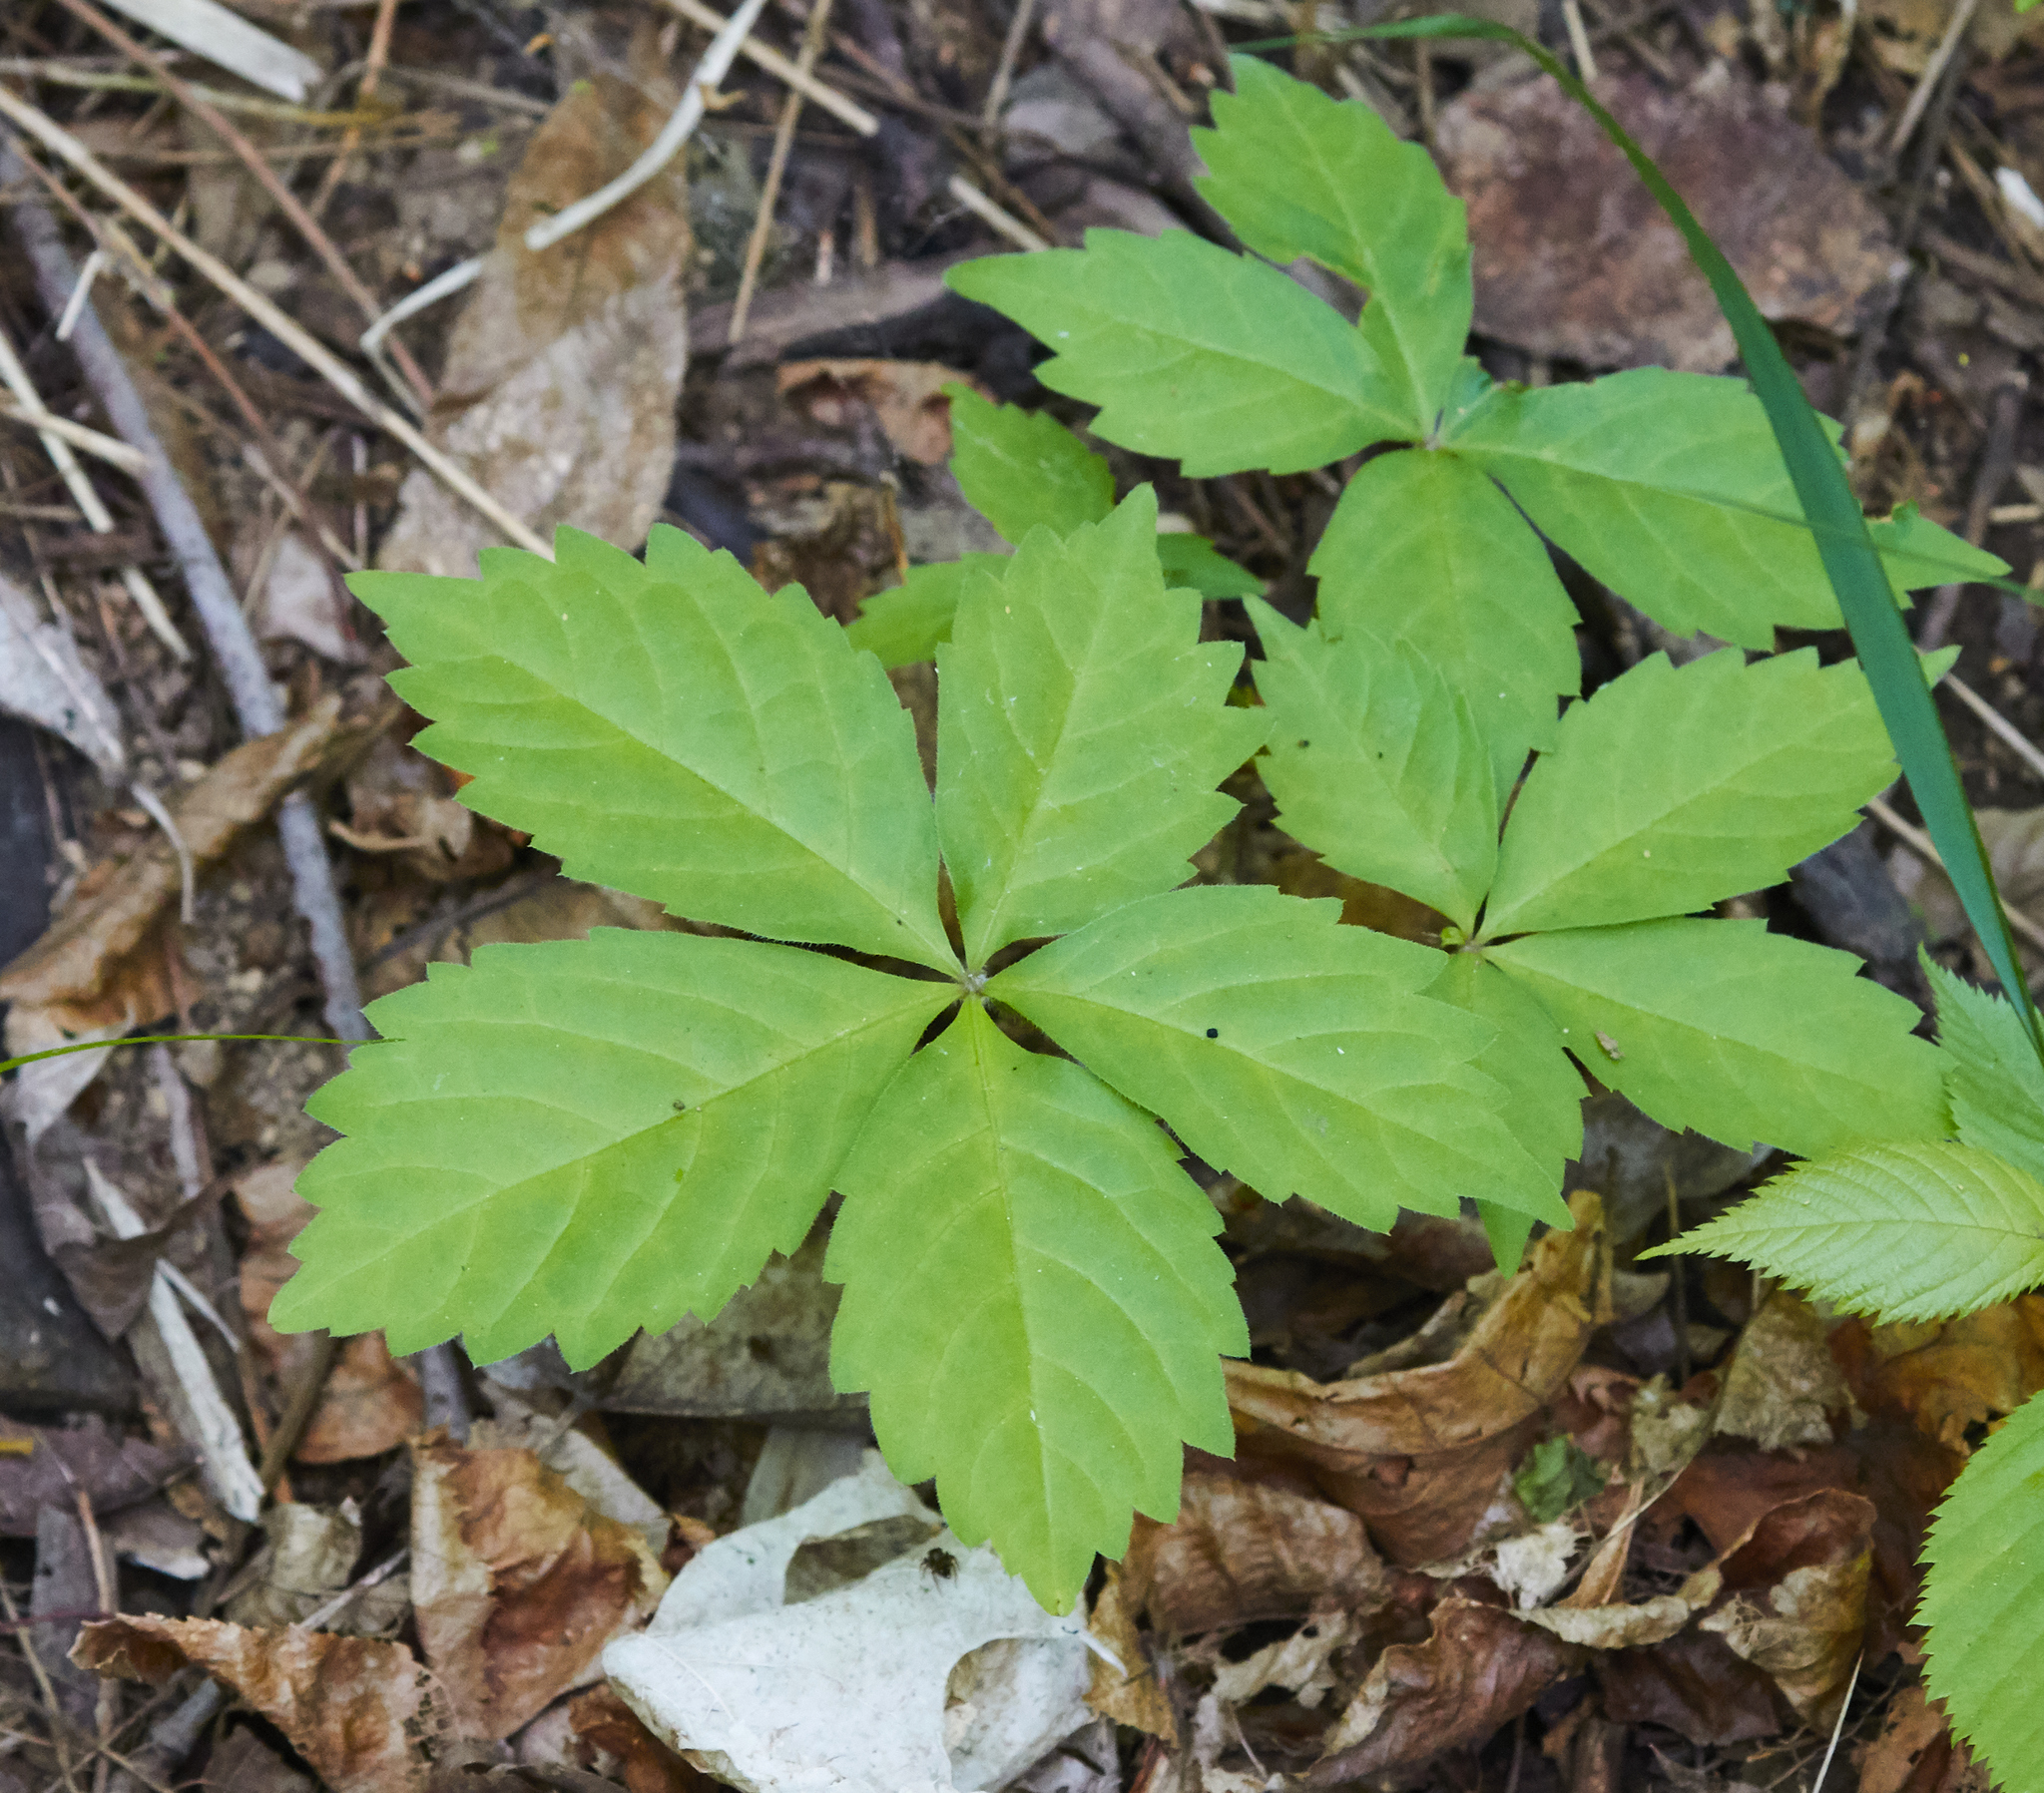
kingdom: Plantae
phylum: Tracheophyta
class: Magnoliopsida
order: Vitales
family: Vitaceae
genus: Parthenocissus
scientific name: Parthenocissus quinquefolia
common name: Virginia-creeper
